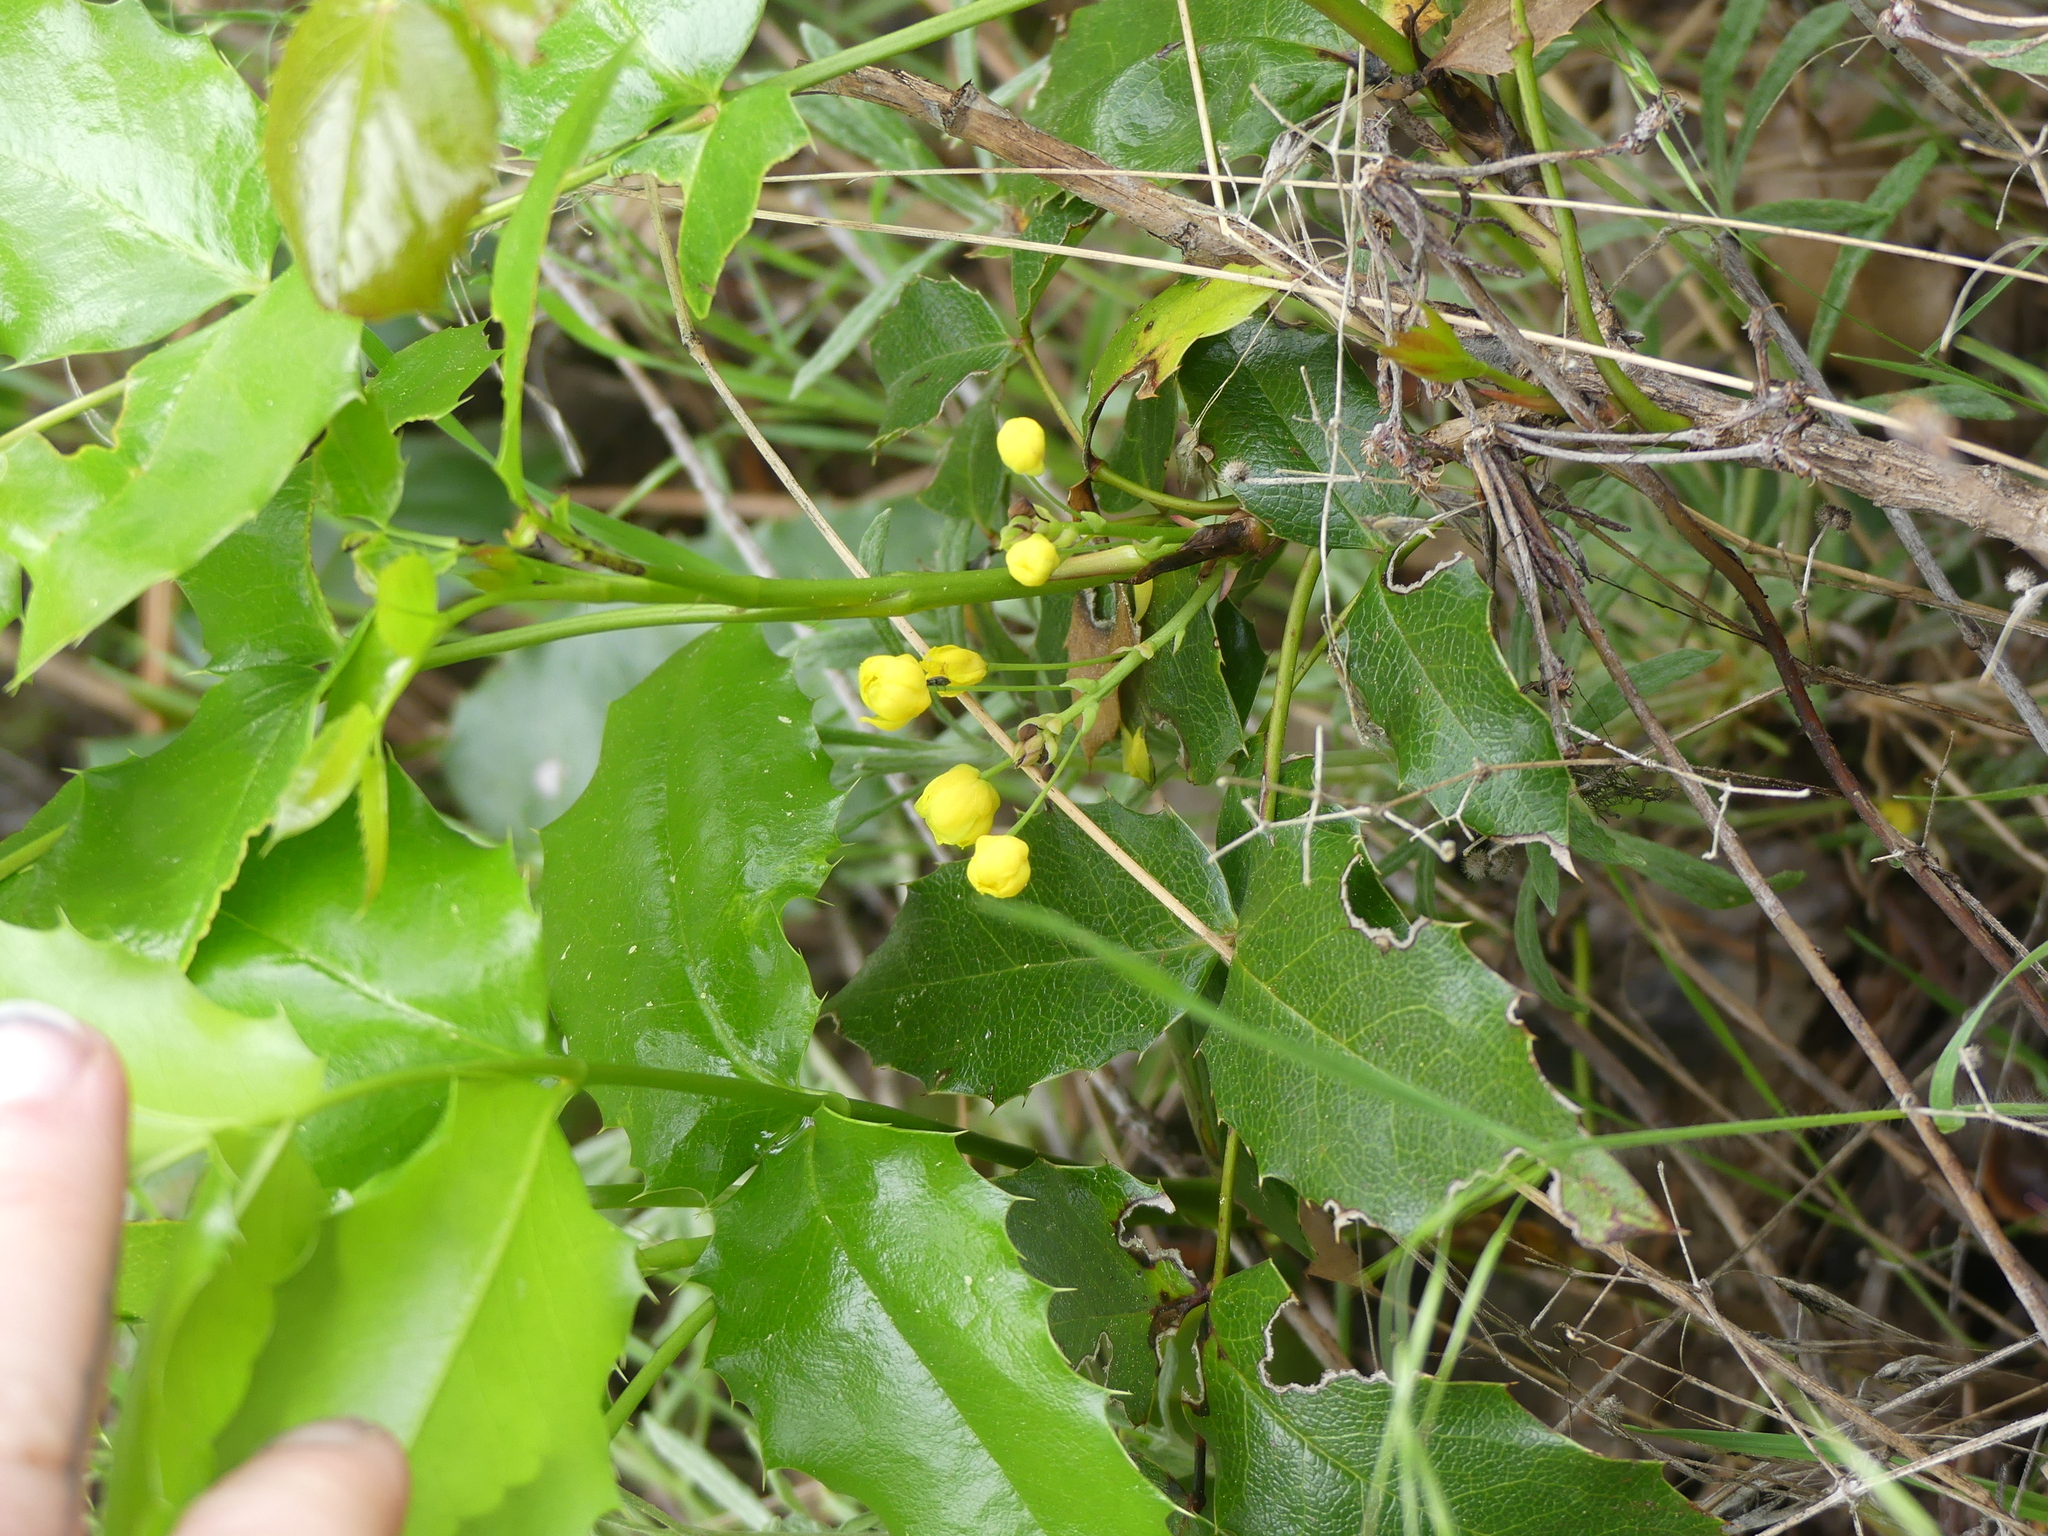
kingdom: Plantae
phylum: Tracheophyta
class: Magnoliopsida
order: Ranunculales
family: Berberidaceae
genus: Mahonia
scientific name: Mahonia aquifolium
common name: Oregon-grape
